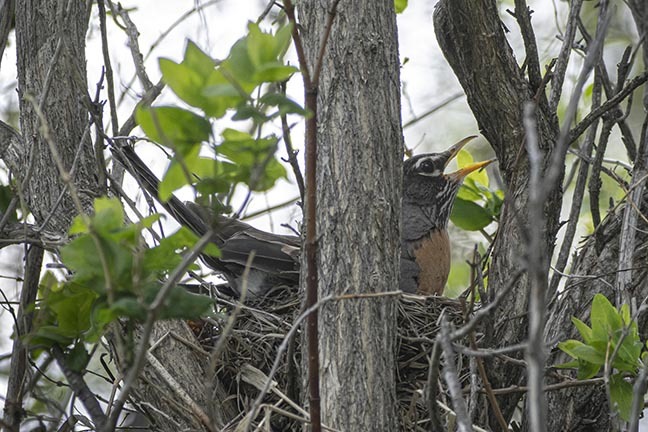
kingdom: Animalia
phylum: Chordata
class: Aves
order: Passeriformes
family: Turdidae
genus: Turdus
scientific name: Turdus migratorius
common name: American robin
